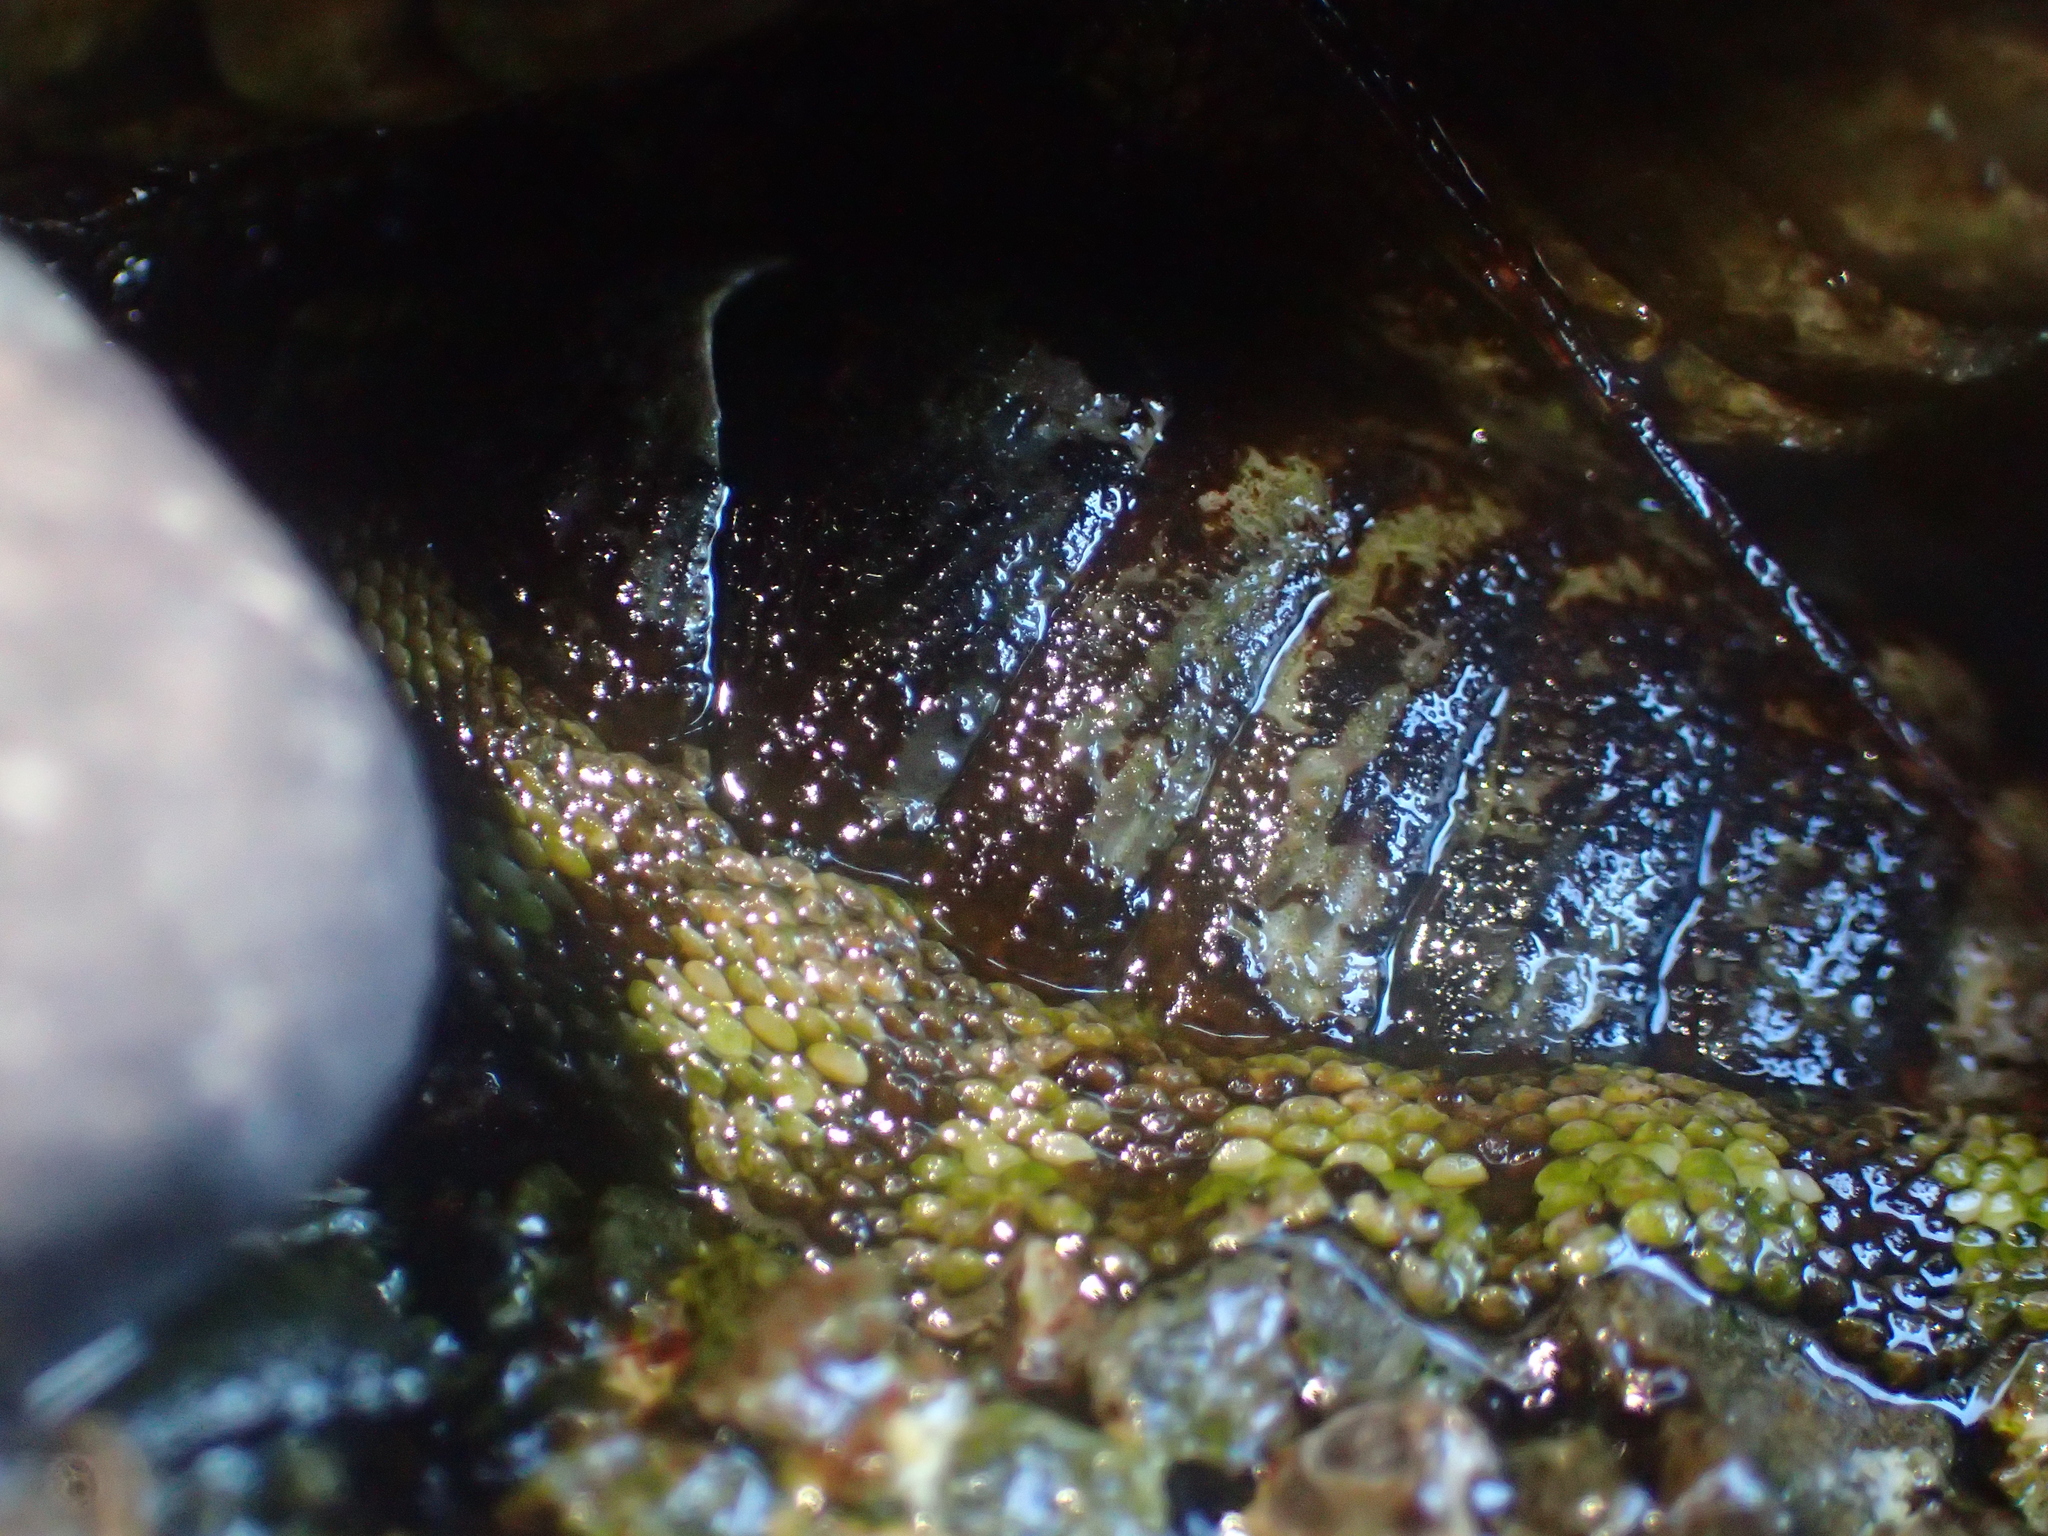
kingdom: Animalia
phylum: Mollusca
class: Polyplacophora
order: Chitonida
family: Chitonidae
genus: Sypharochiton
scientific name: Sypharochiton pelliserpentis
